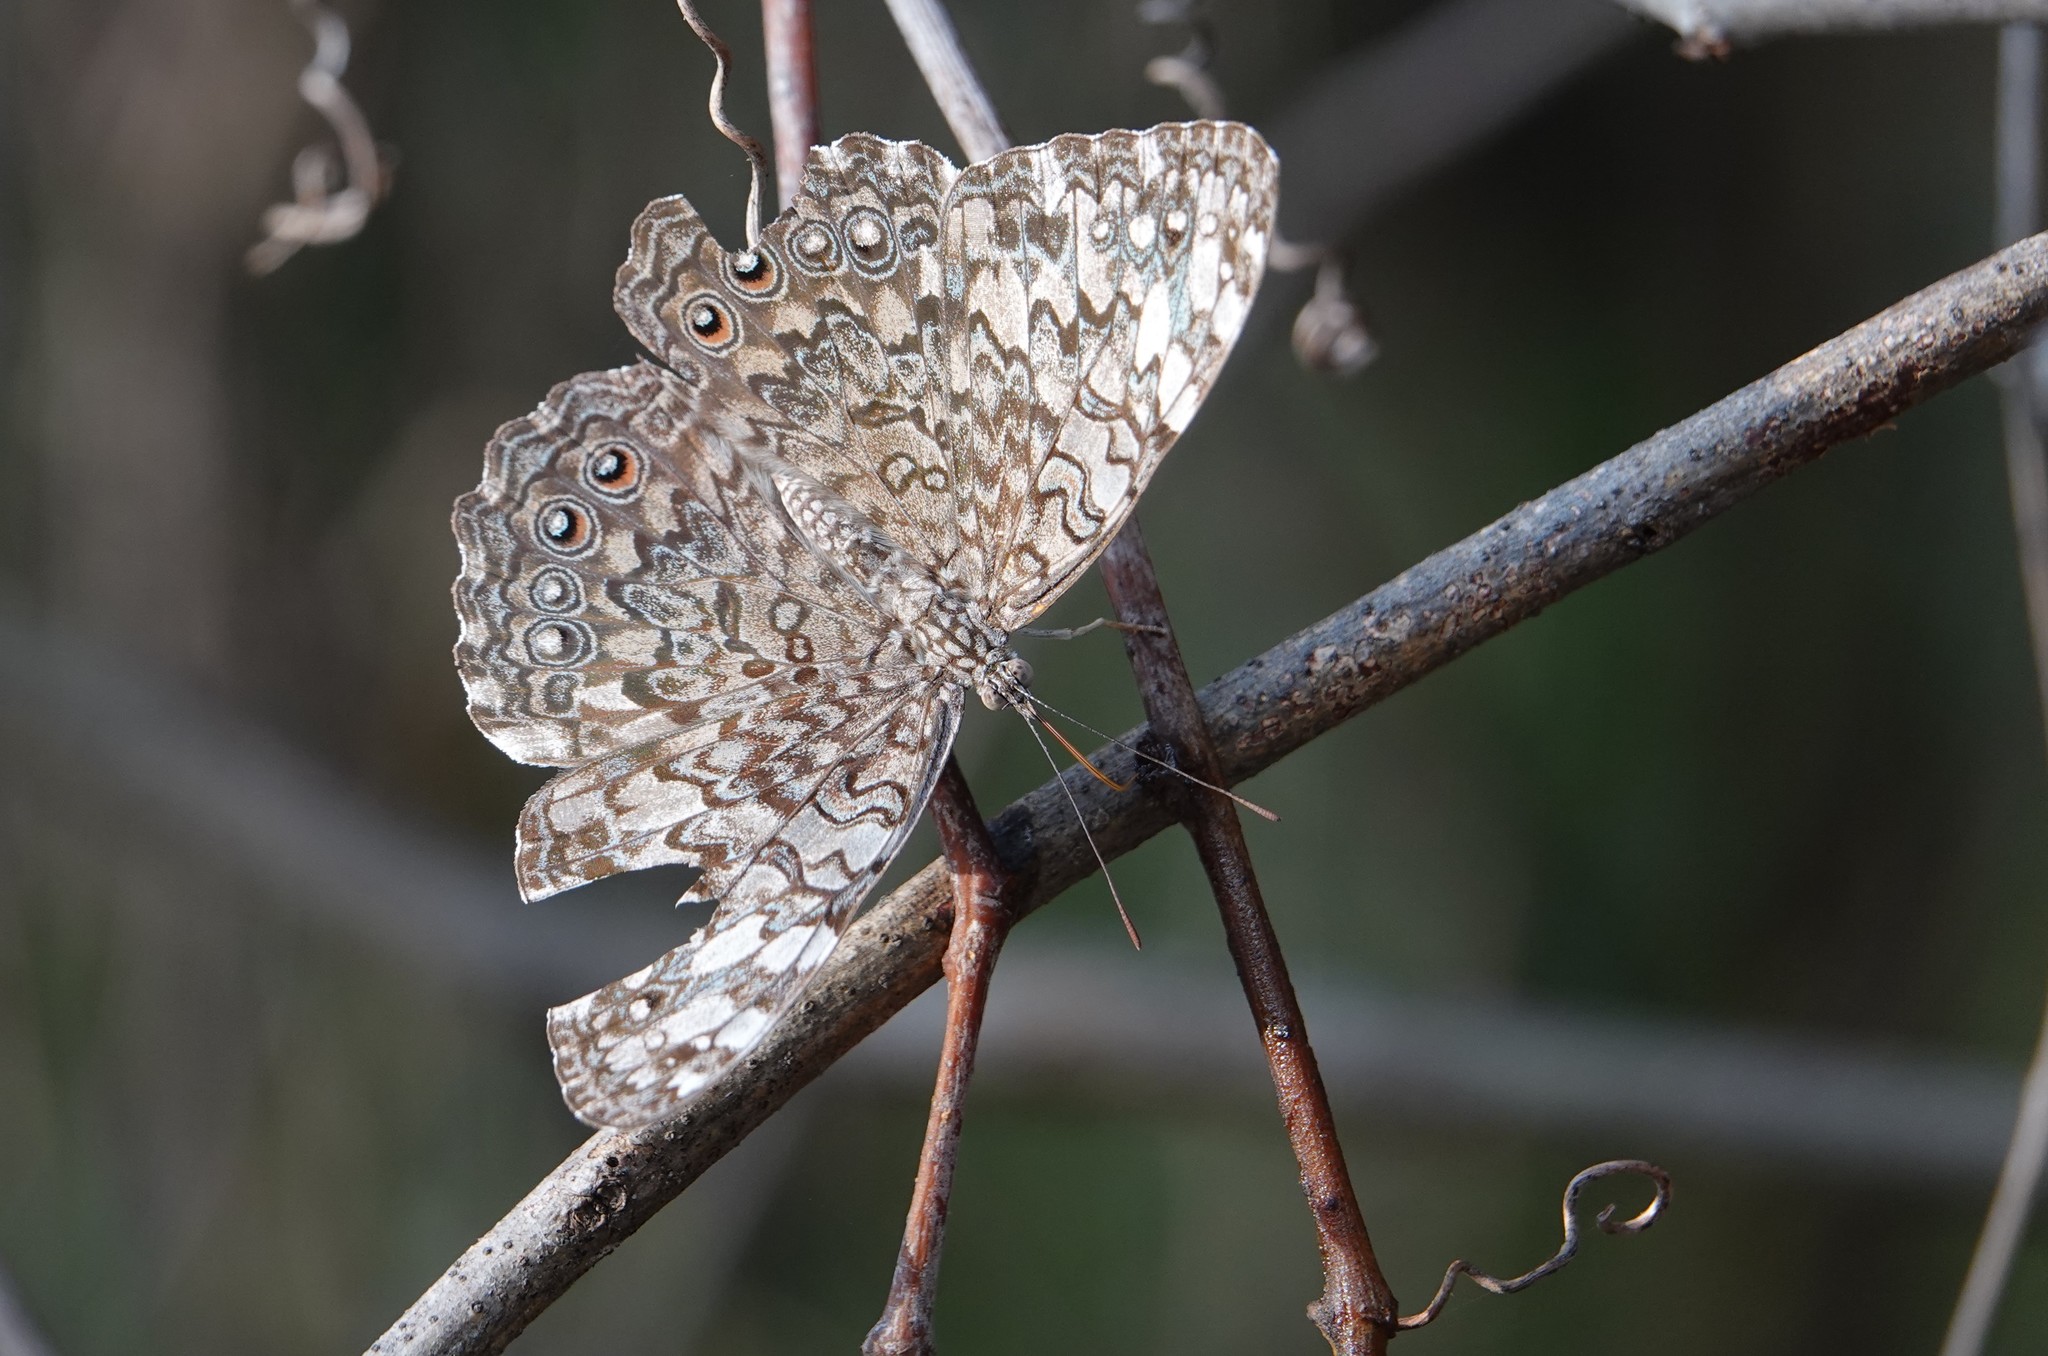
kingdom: Animalia
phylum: Arthropoda
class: Insecta
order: Lepidoptera
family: Nymphalidae
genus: Hamadryas
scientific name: Hamadryas februa
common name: Gray cracker
